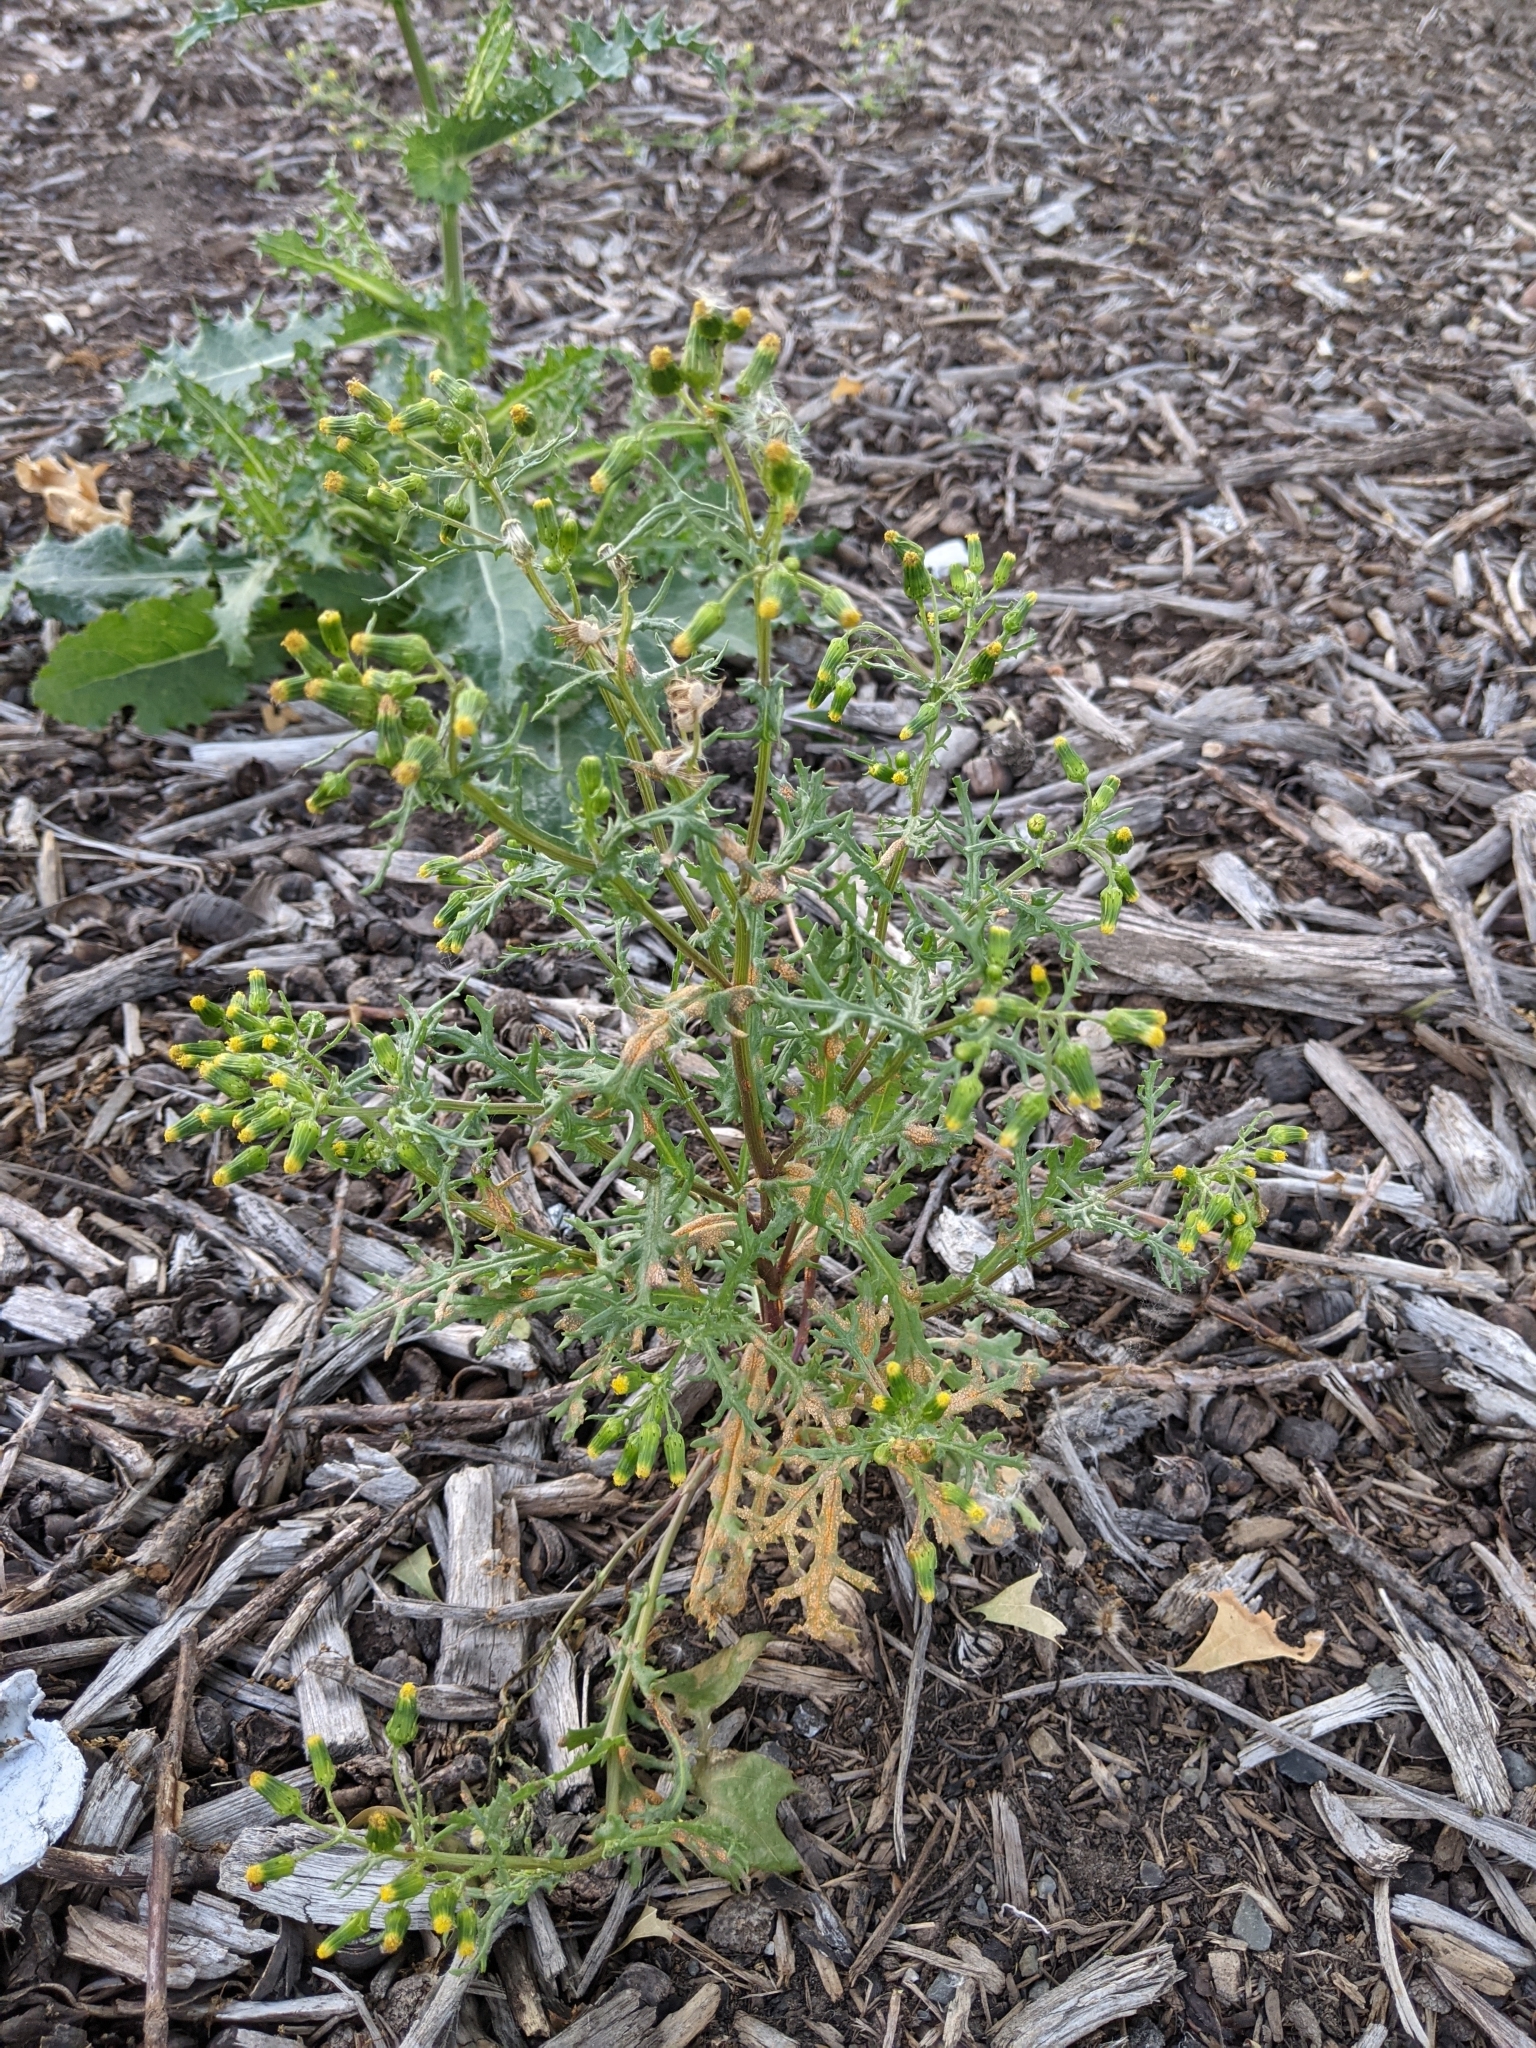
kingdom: Fungi
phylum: Basidiomycota
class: Pucciniomycetes
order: Pucciniales
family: Pucciniaceae
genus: Puccinia
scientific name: Puccinia lagenophorae
